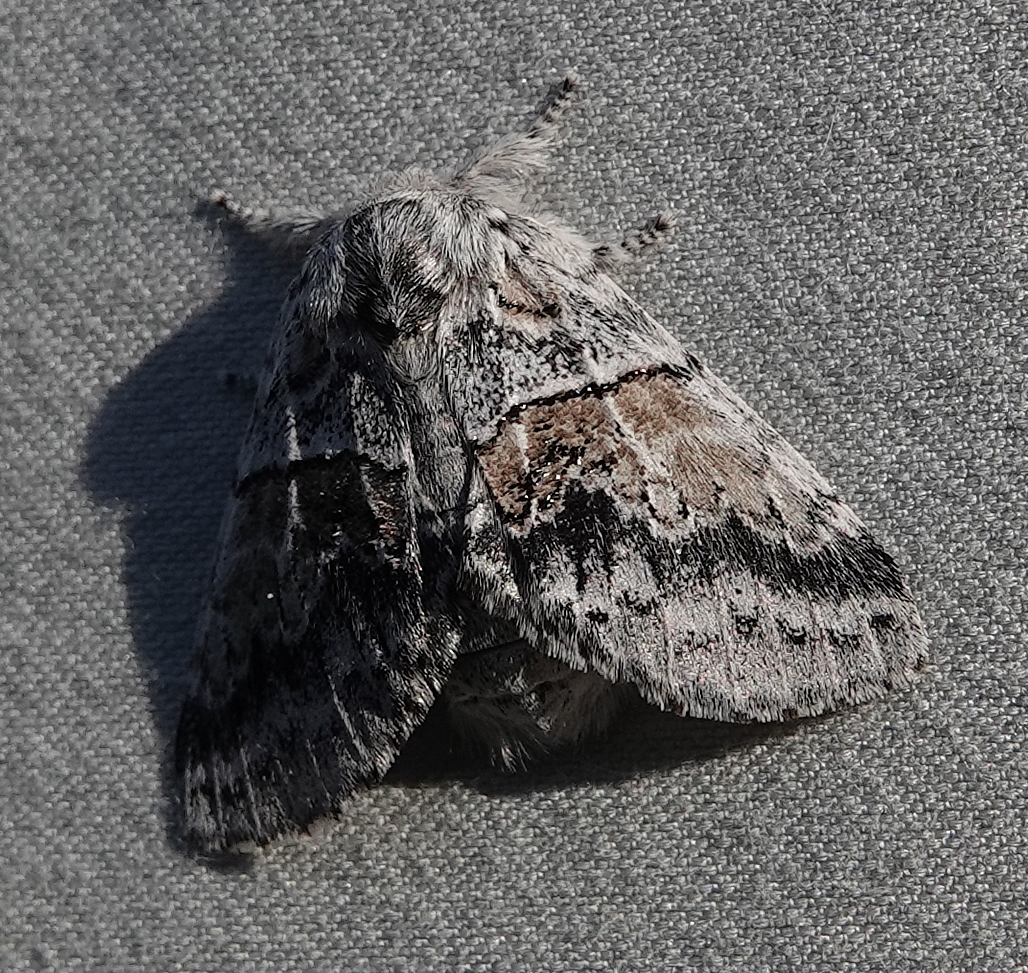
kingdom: Animalia
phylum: Arthropoda
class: Insecta
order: Lepidoptera
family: Notodontidae
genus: Gluphisia
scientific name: Gluphisia septentrionis
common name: Common gluphisia
